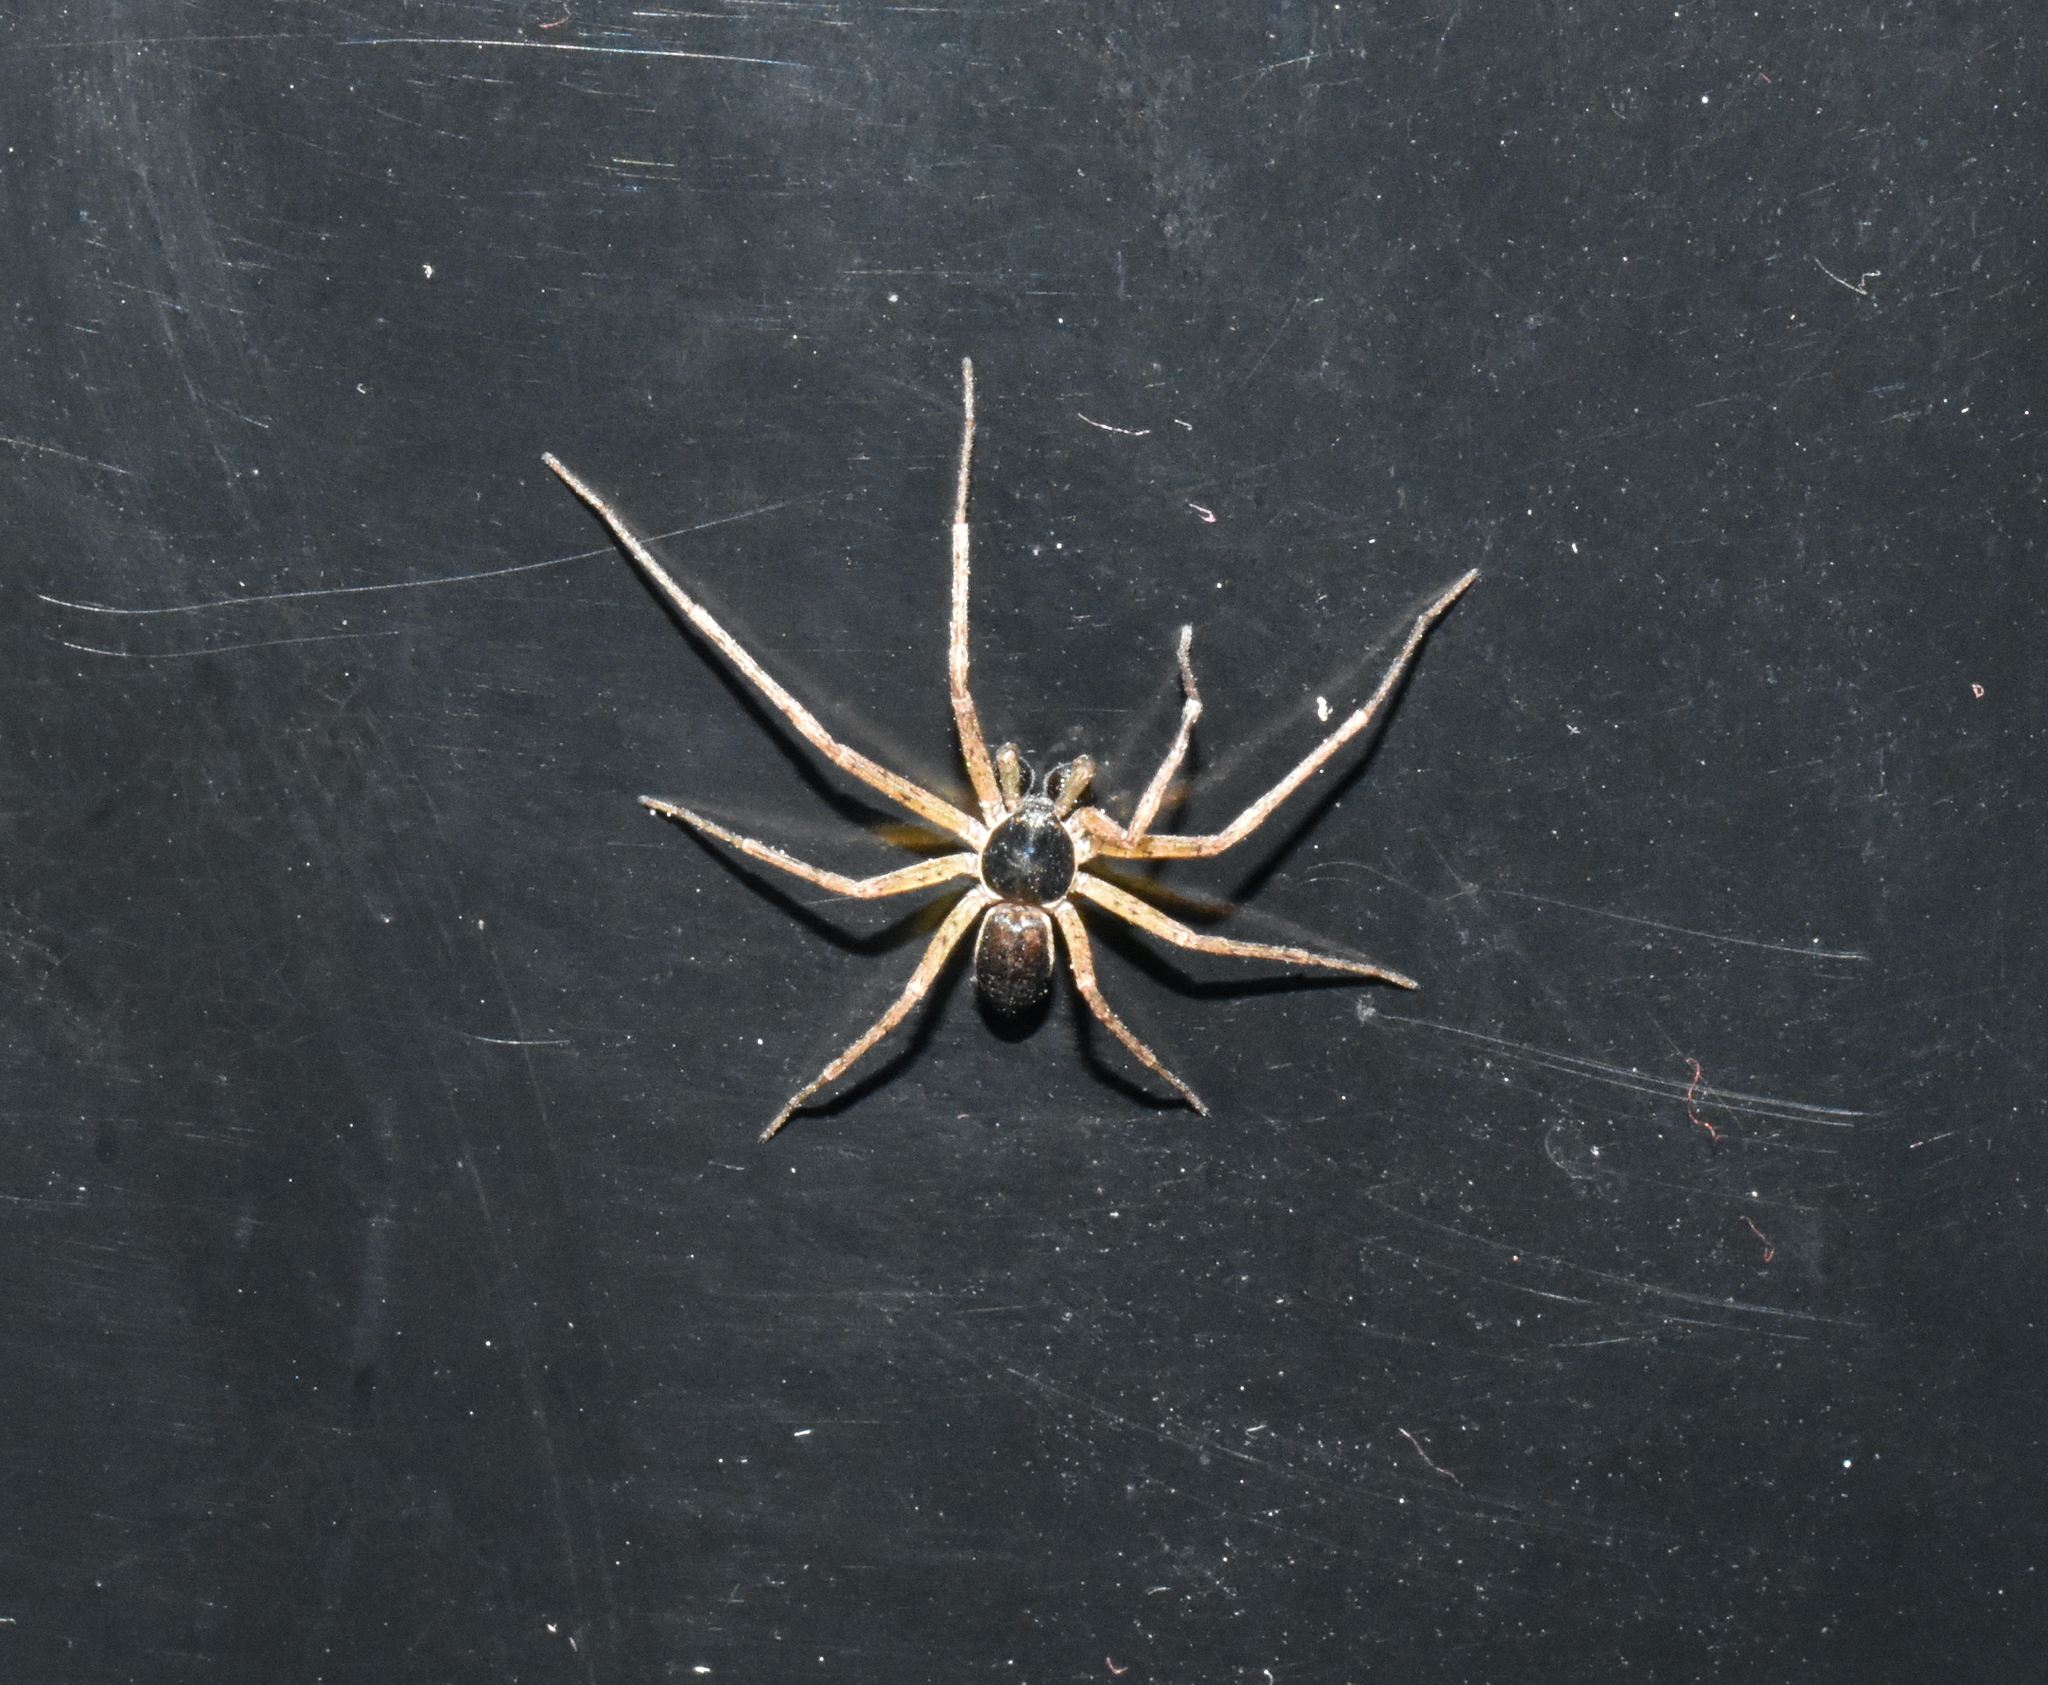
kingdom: Animalia
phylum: Arthropoda
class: Arachnida
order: Araneae
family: Philodromidae
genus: Philodromus
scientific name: Philodromus dispar
